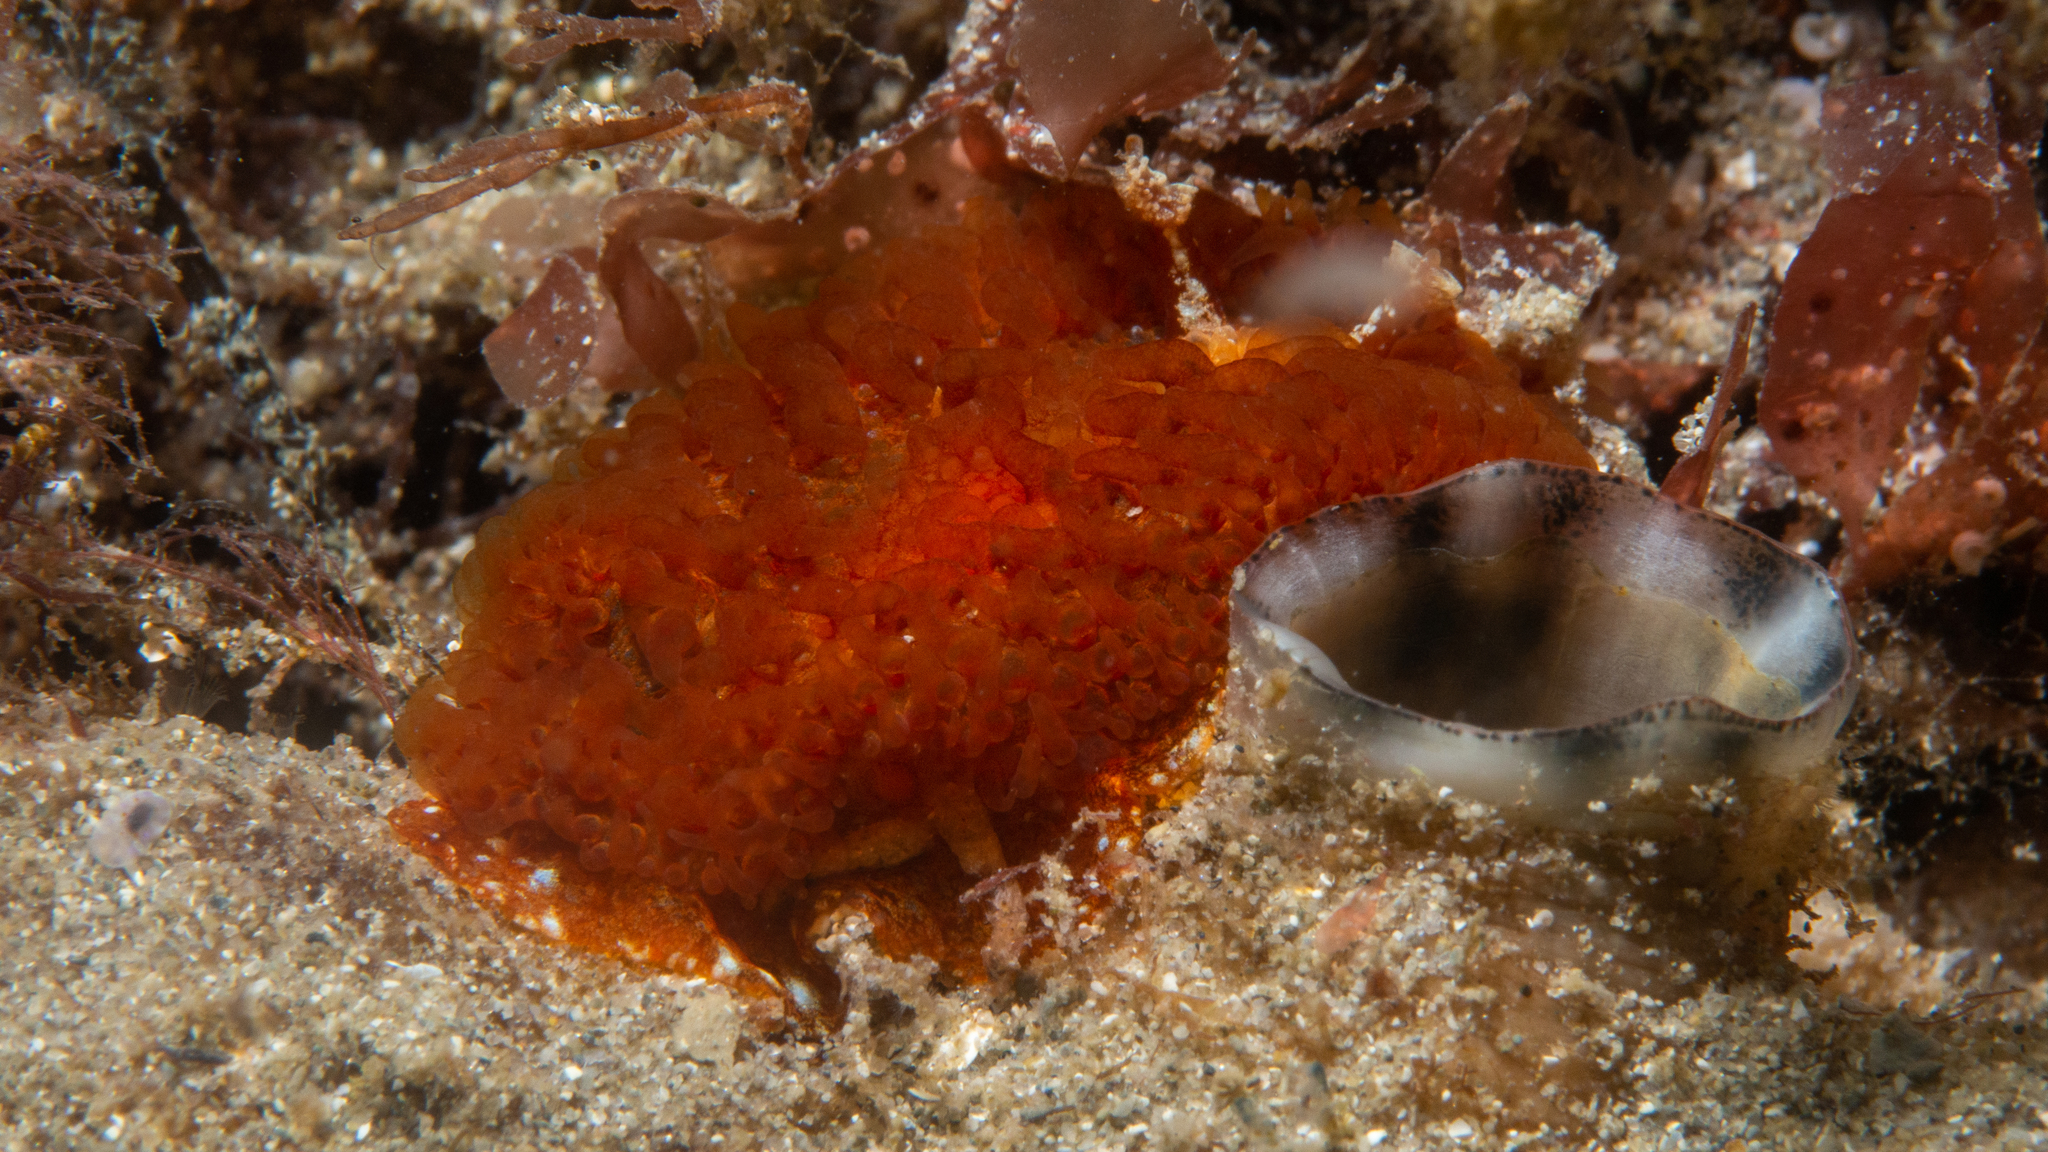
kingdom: Animalia
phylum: Mollusca
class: Gastropoda
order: Nudibranchia
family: Madrellidae
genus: Madrella
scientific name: Madrella sanguinea
